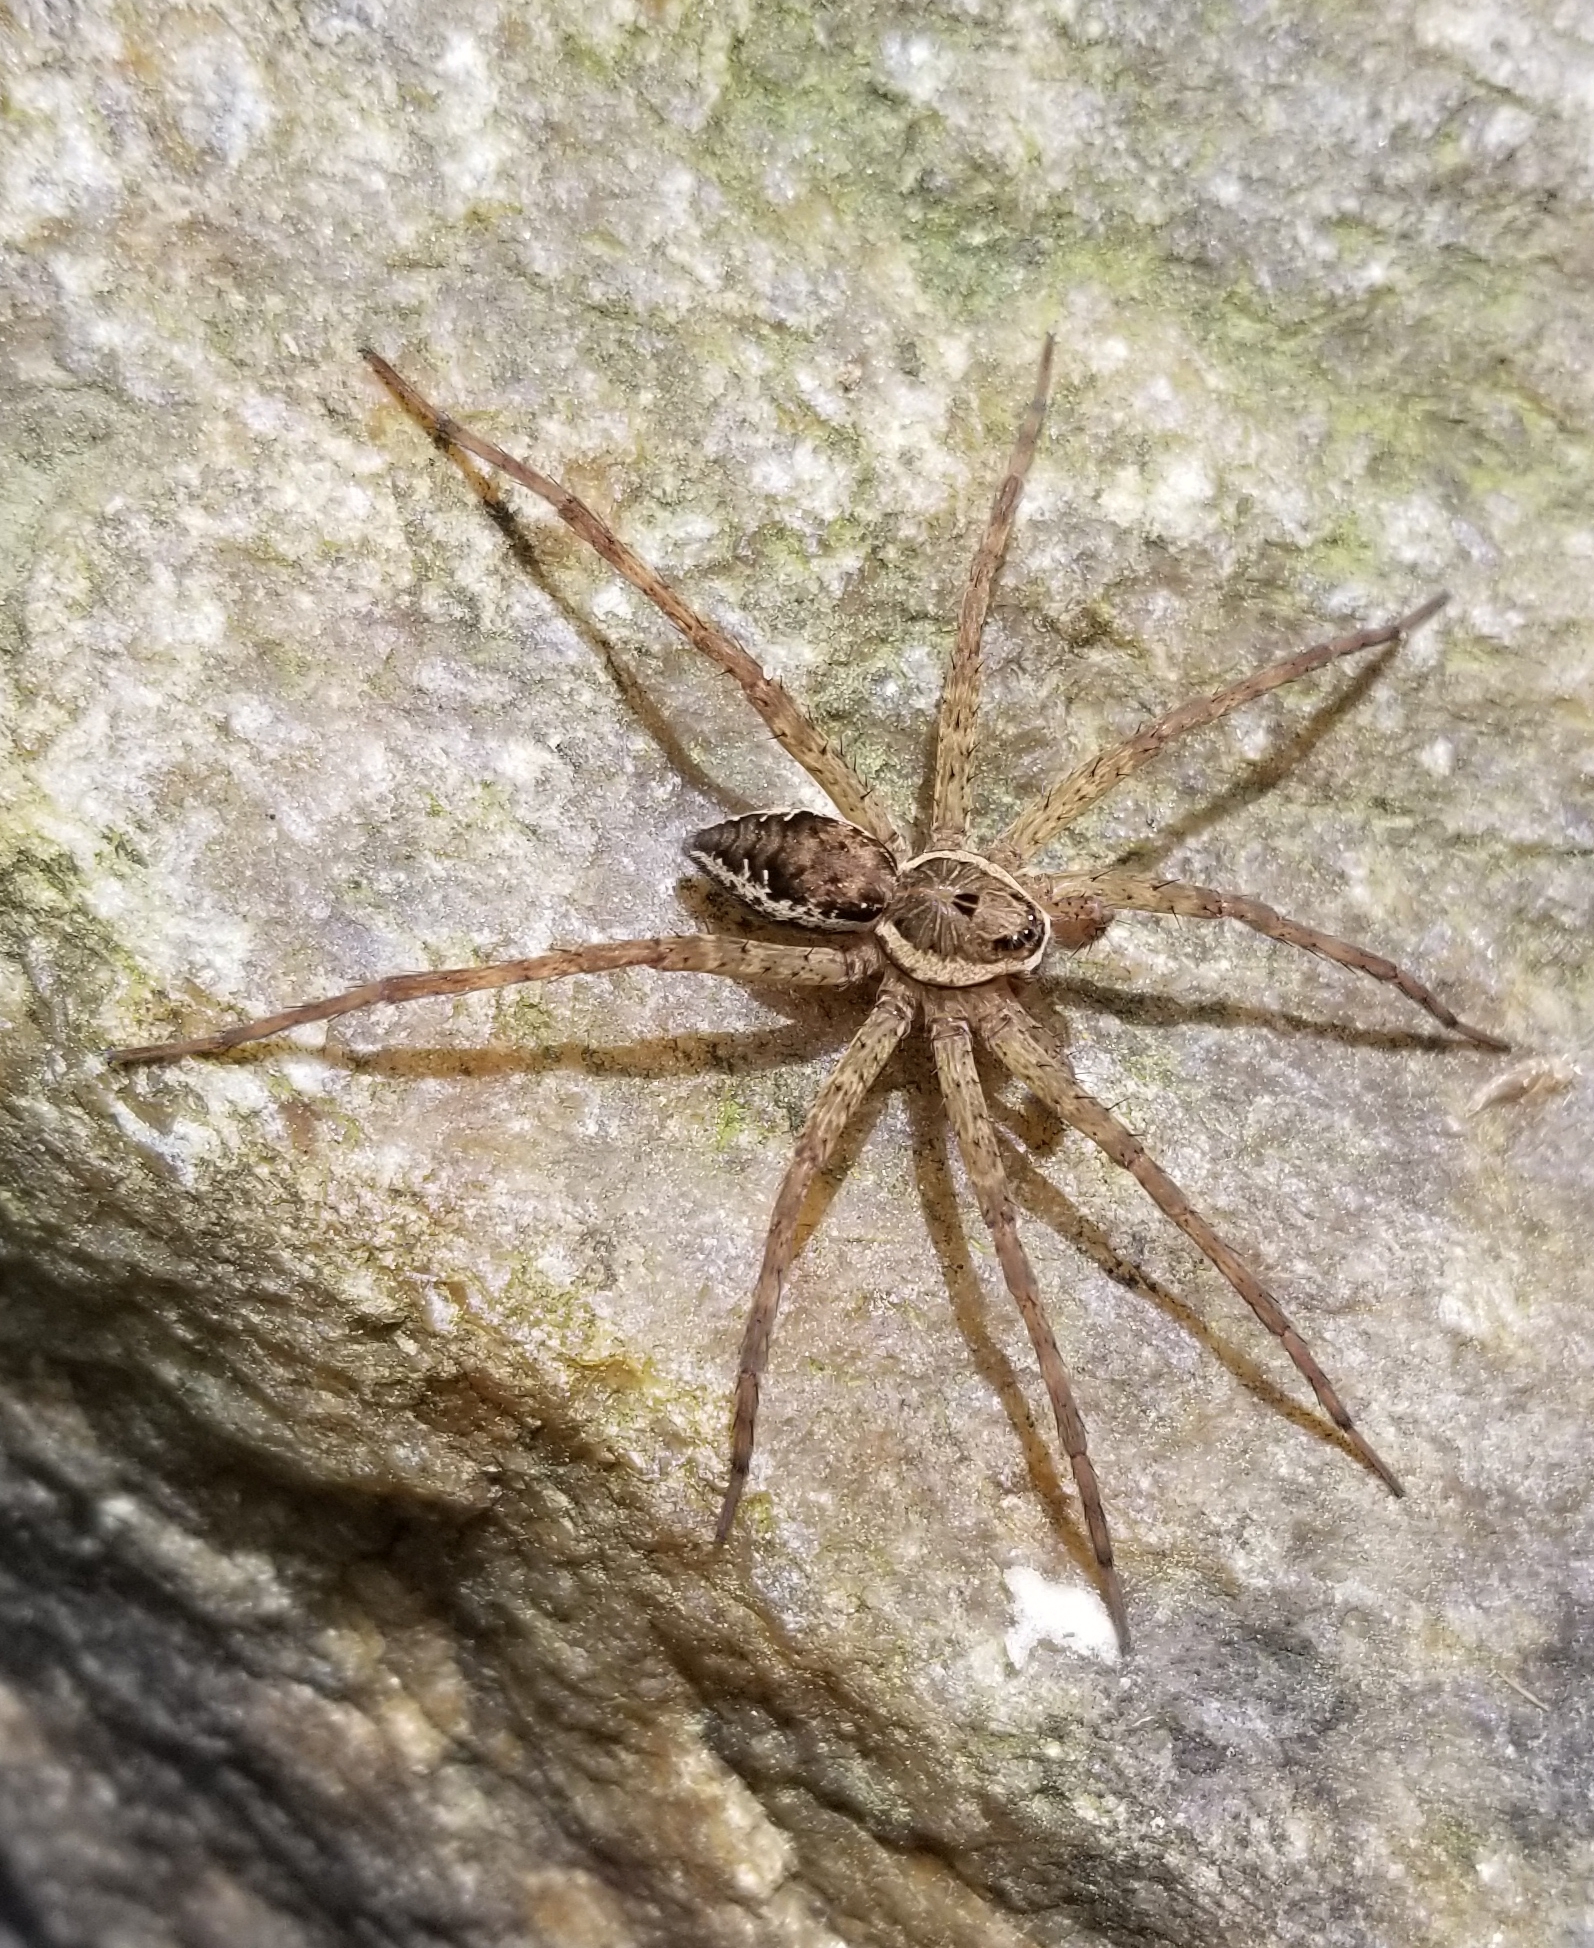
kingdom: Animalia
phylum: Arthropoda
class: Arachnida
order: Araneae
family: Pisauridae
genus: Dolomedes
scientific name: Dolomedes vittatus
